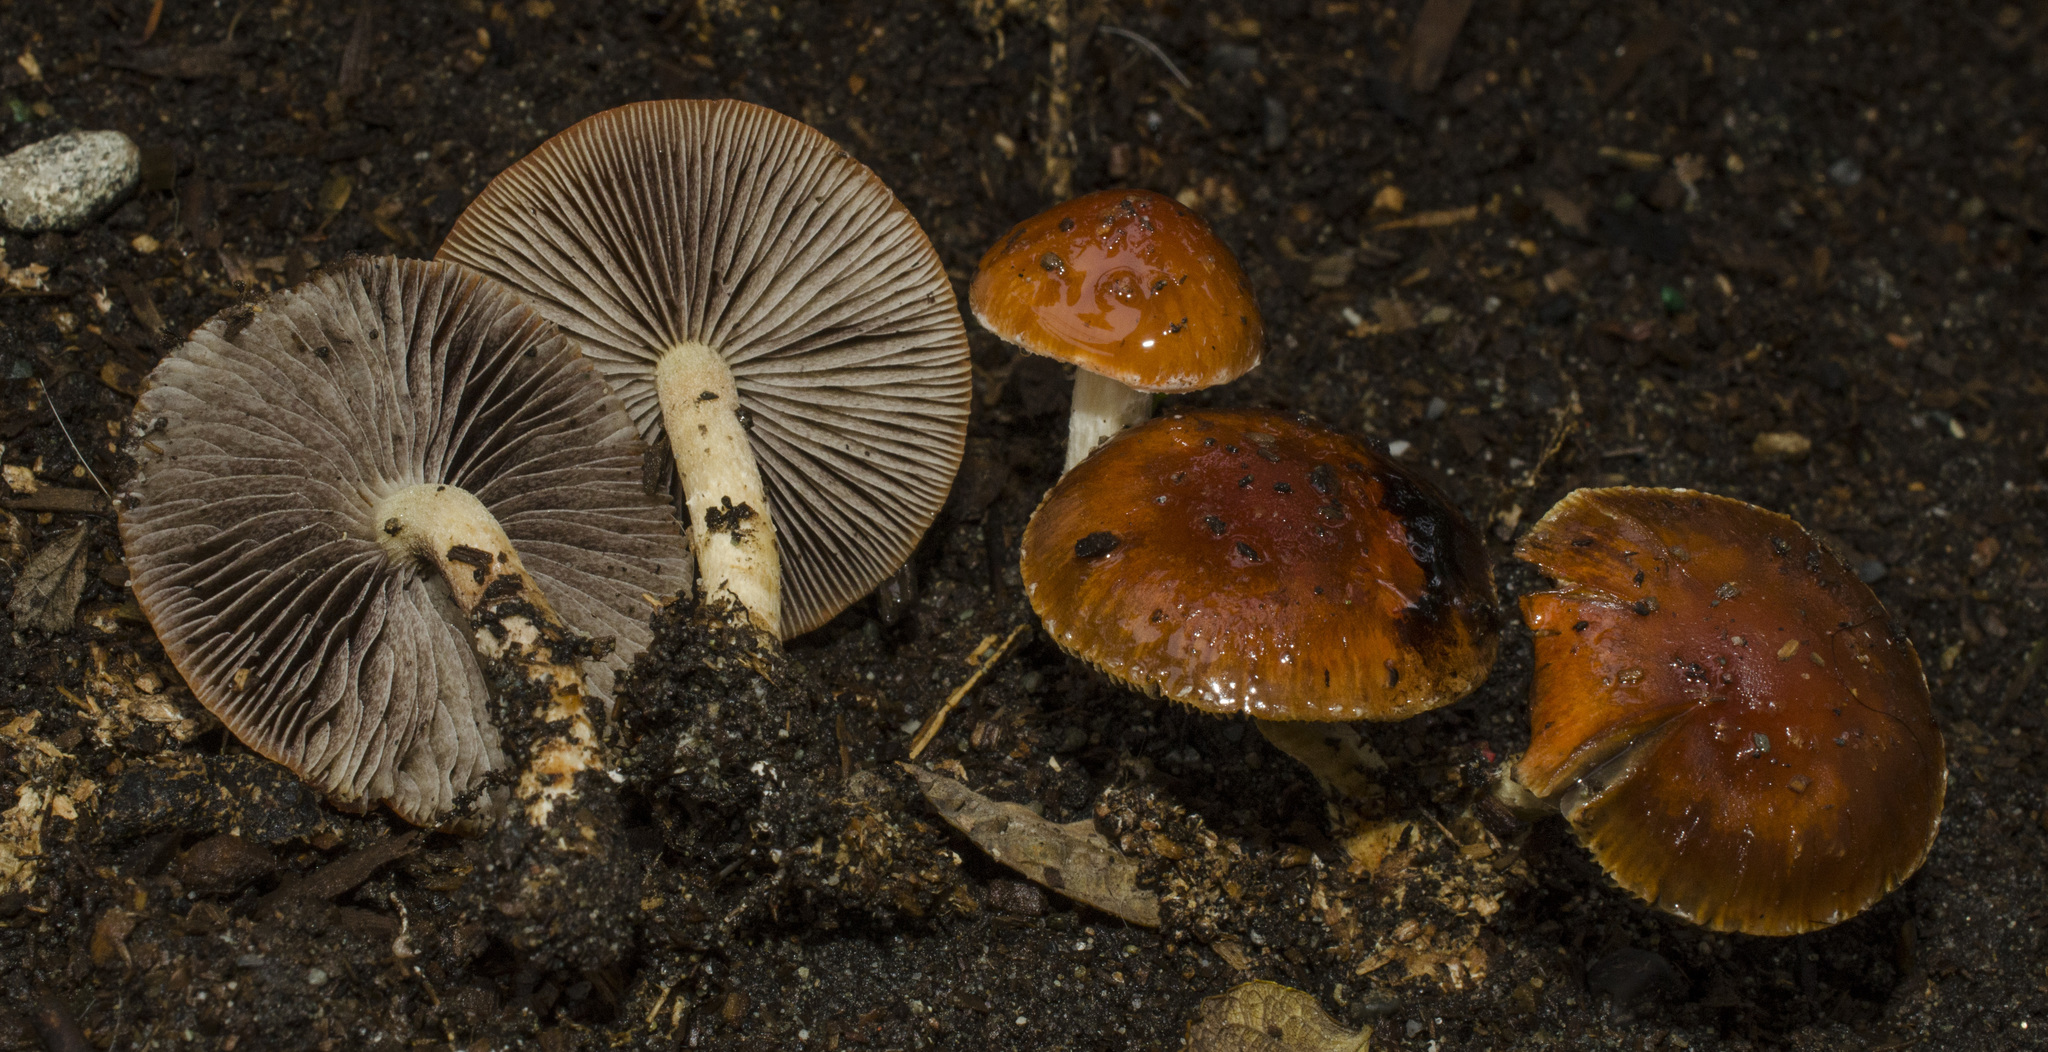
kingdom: Fungi
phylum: Basidiomycota
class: Agaricomycetes
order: Agaricales
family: Strophariaceae
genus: Leratiomyces
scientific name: Leratiomyces ceres
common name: Redlead roundhead
